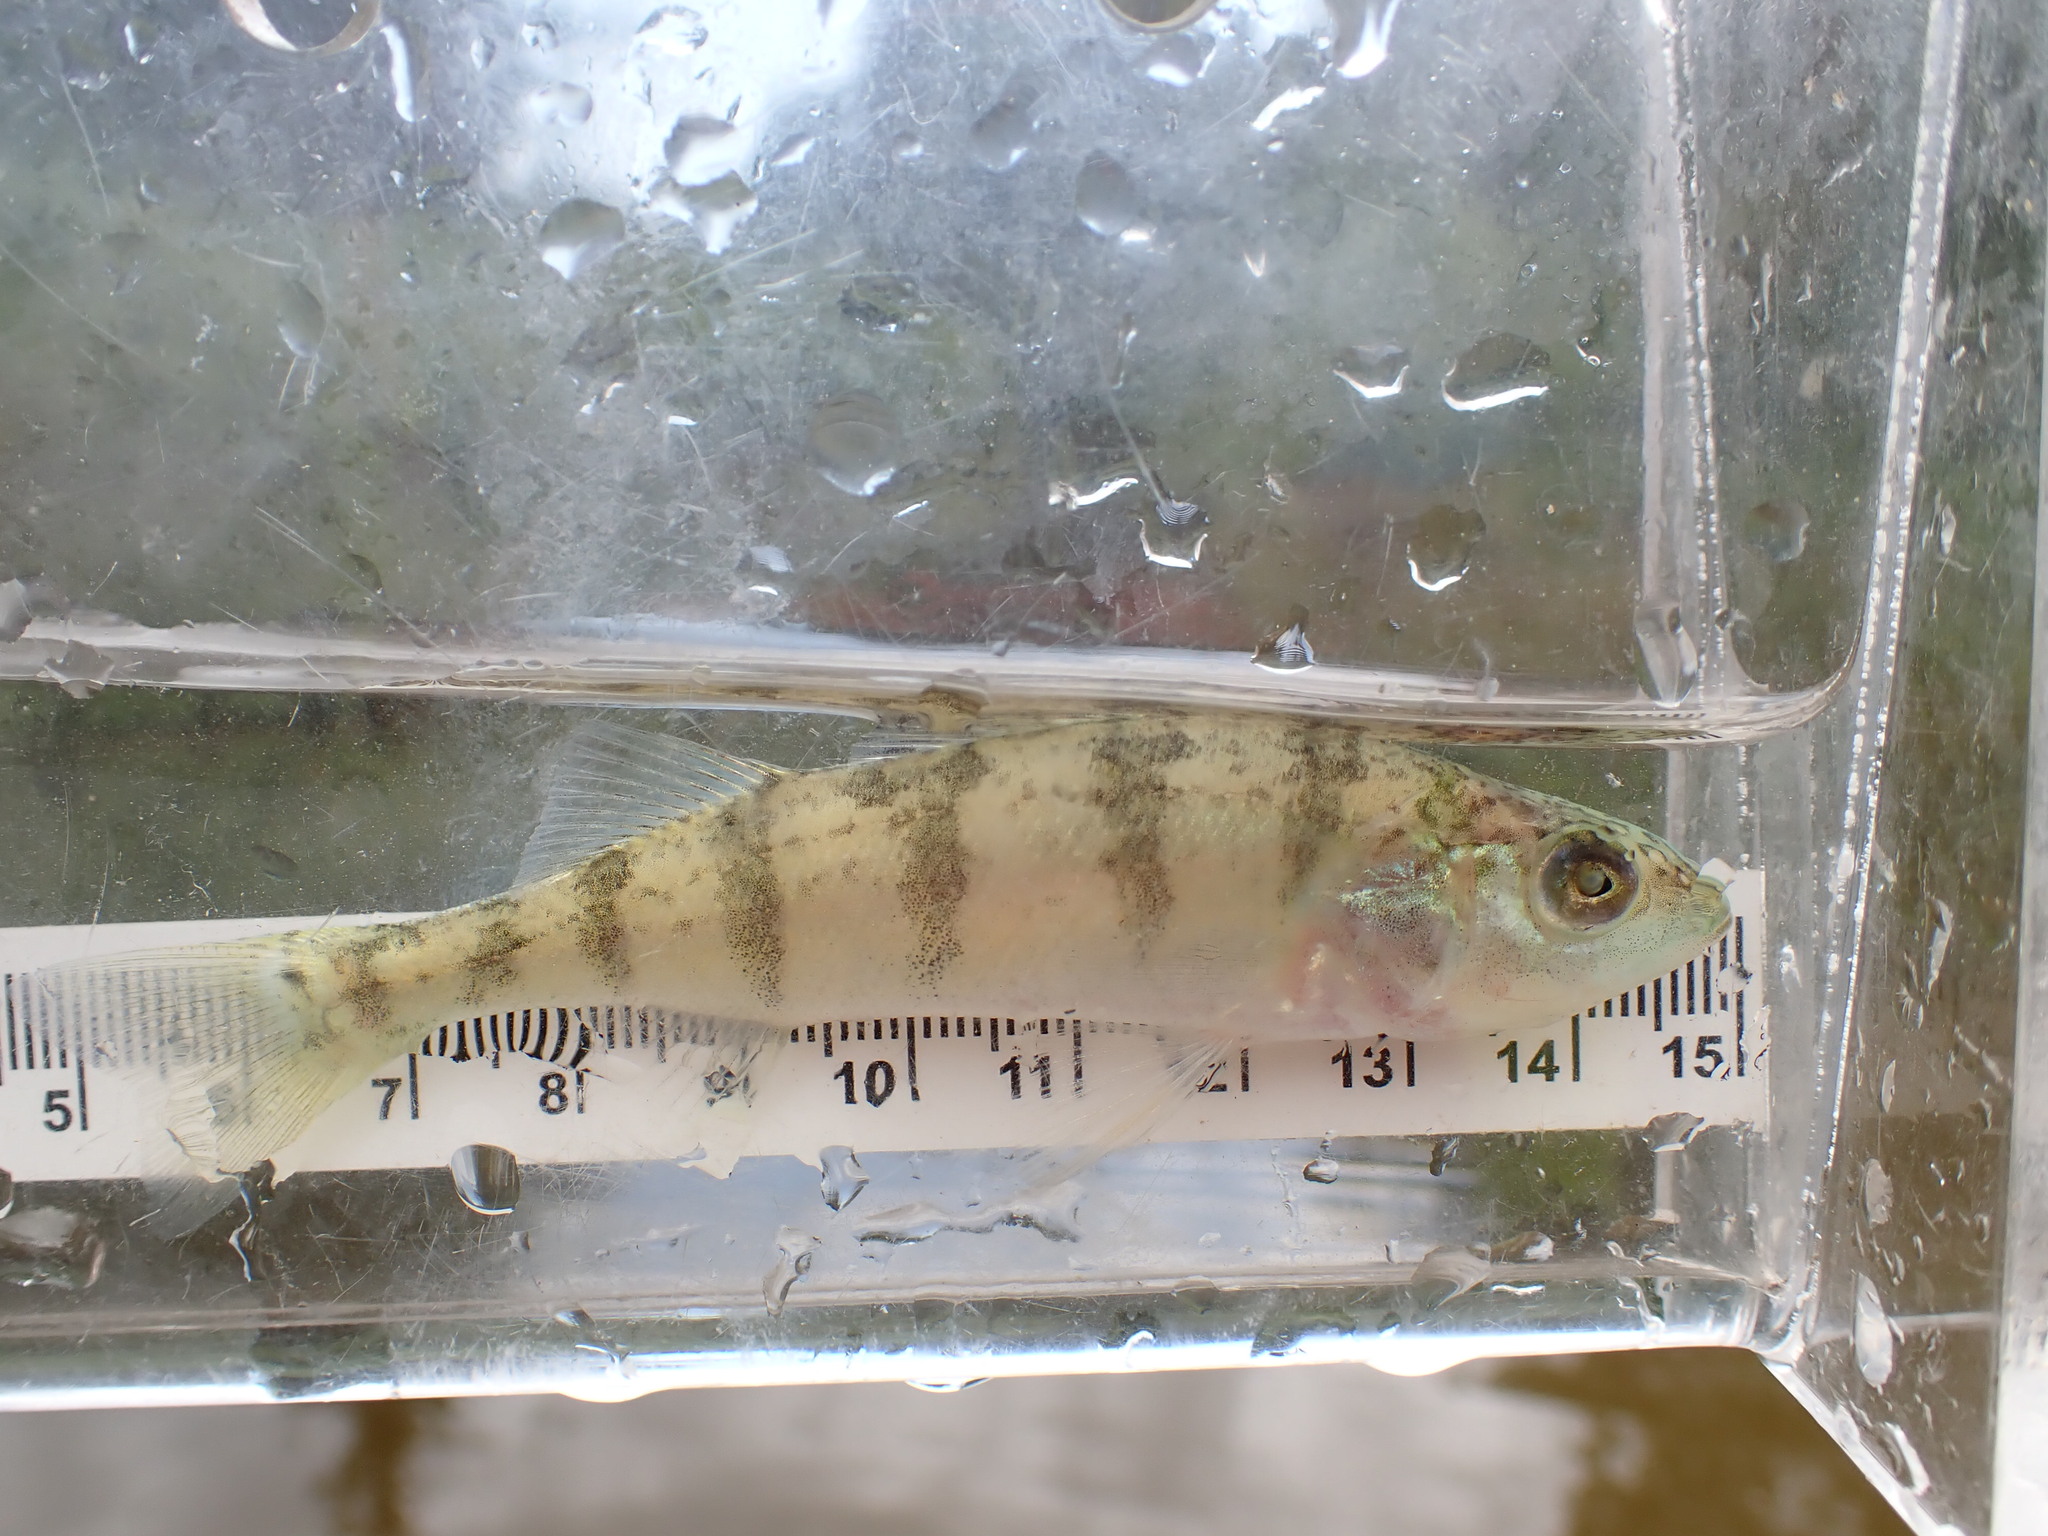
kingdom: Animalia
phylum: Chordata
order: Perciformes
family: Percidae
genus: Perca
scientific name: Perca flavescens
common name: Yellow perch
